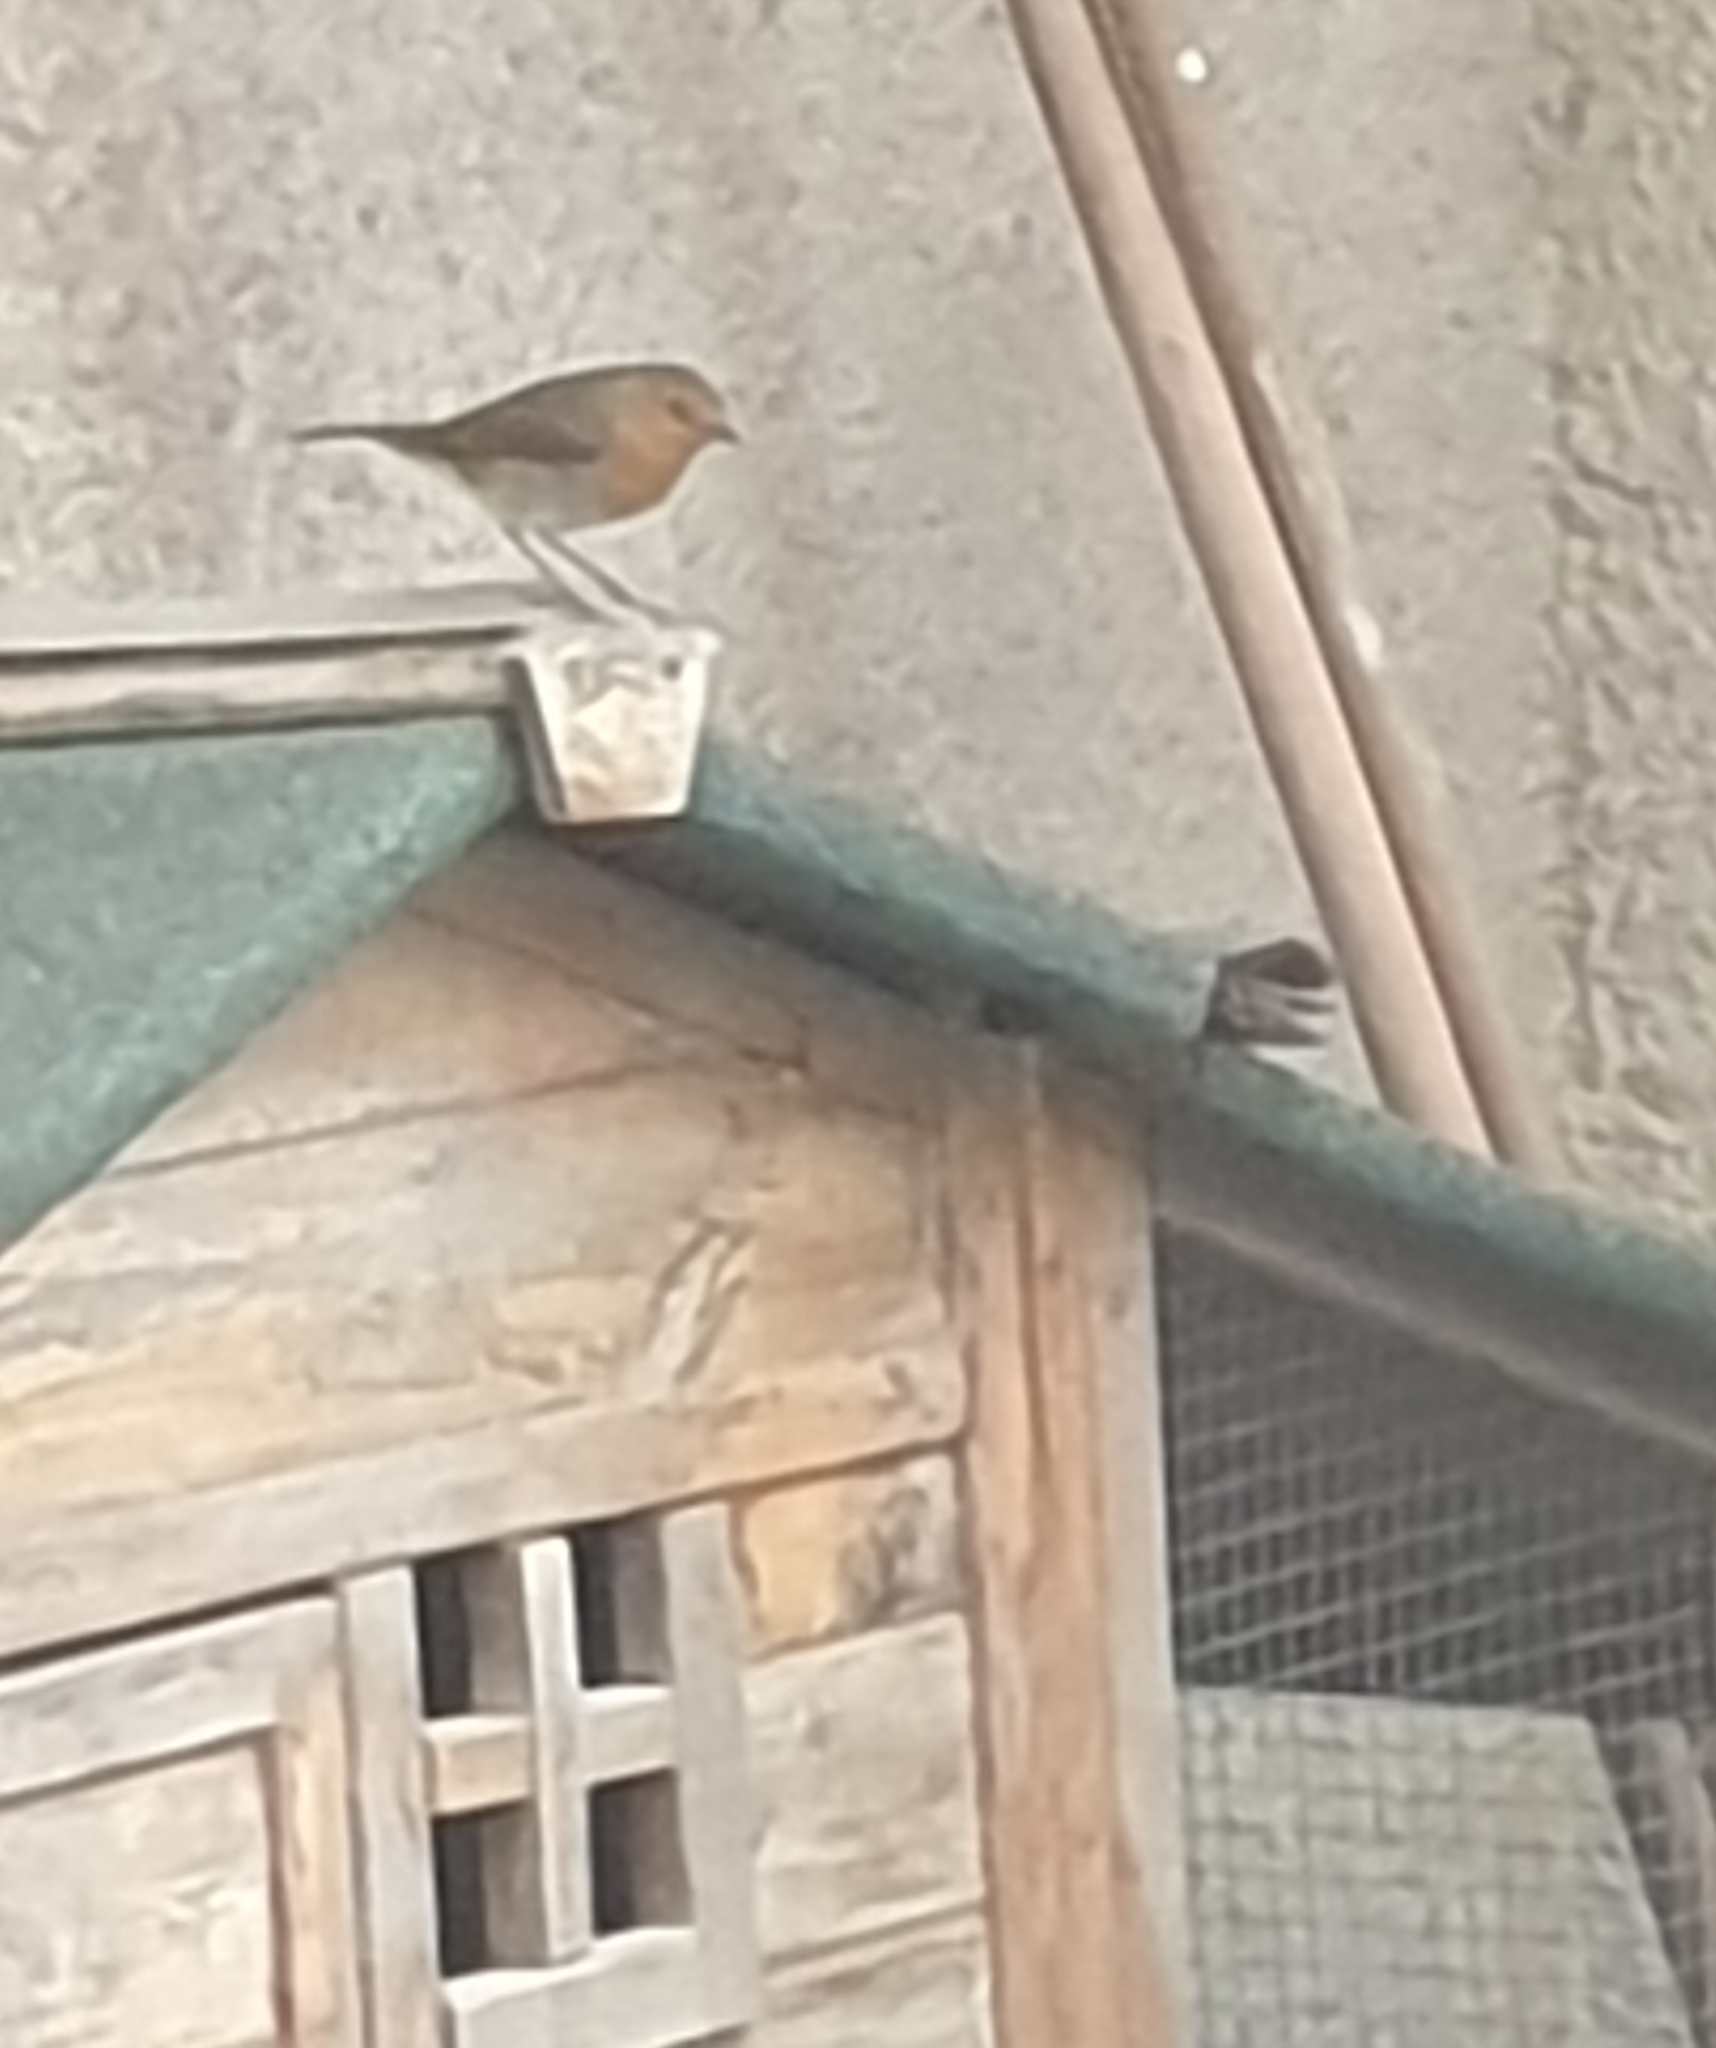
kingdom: Animalia
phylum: Chordata
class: Aves
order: Passeriformes
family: Muscicapidae
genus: Erithacus
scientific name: Erithacus rubecula
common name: European robin
